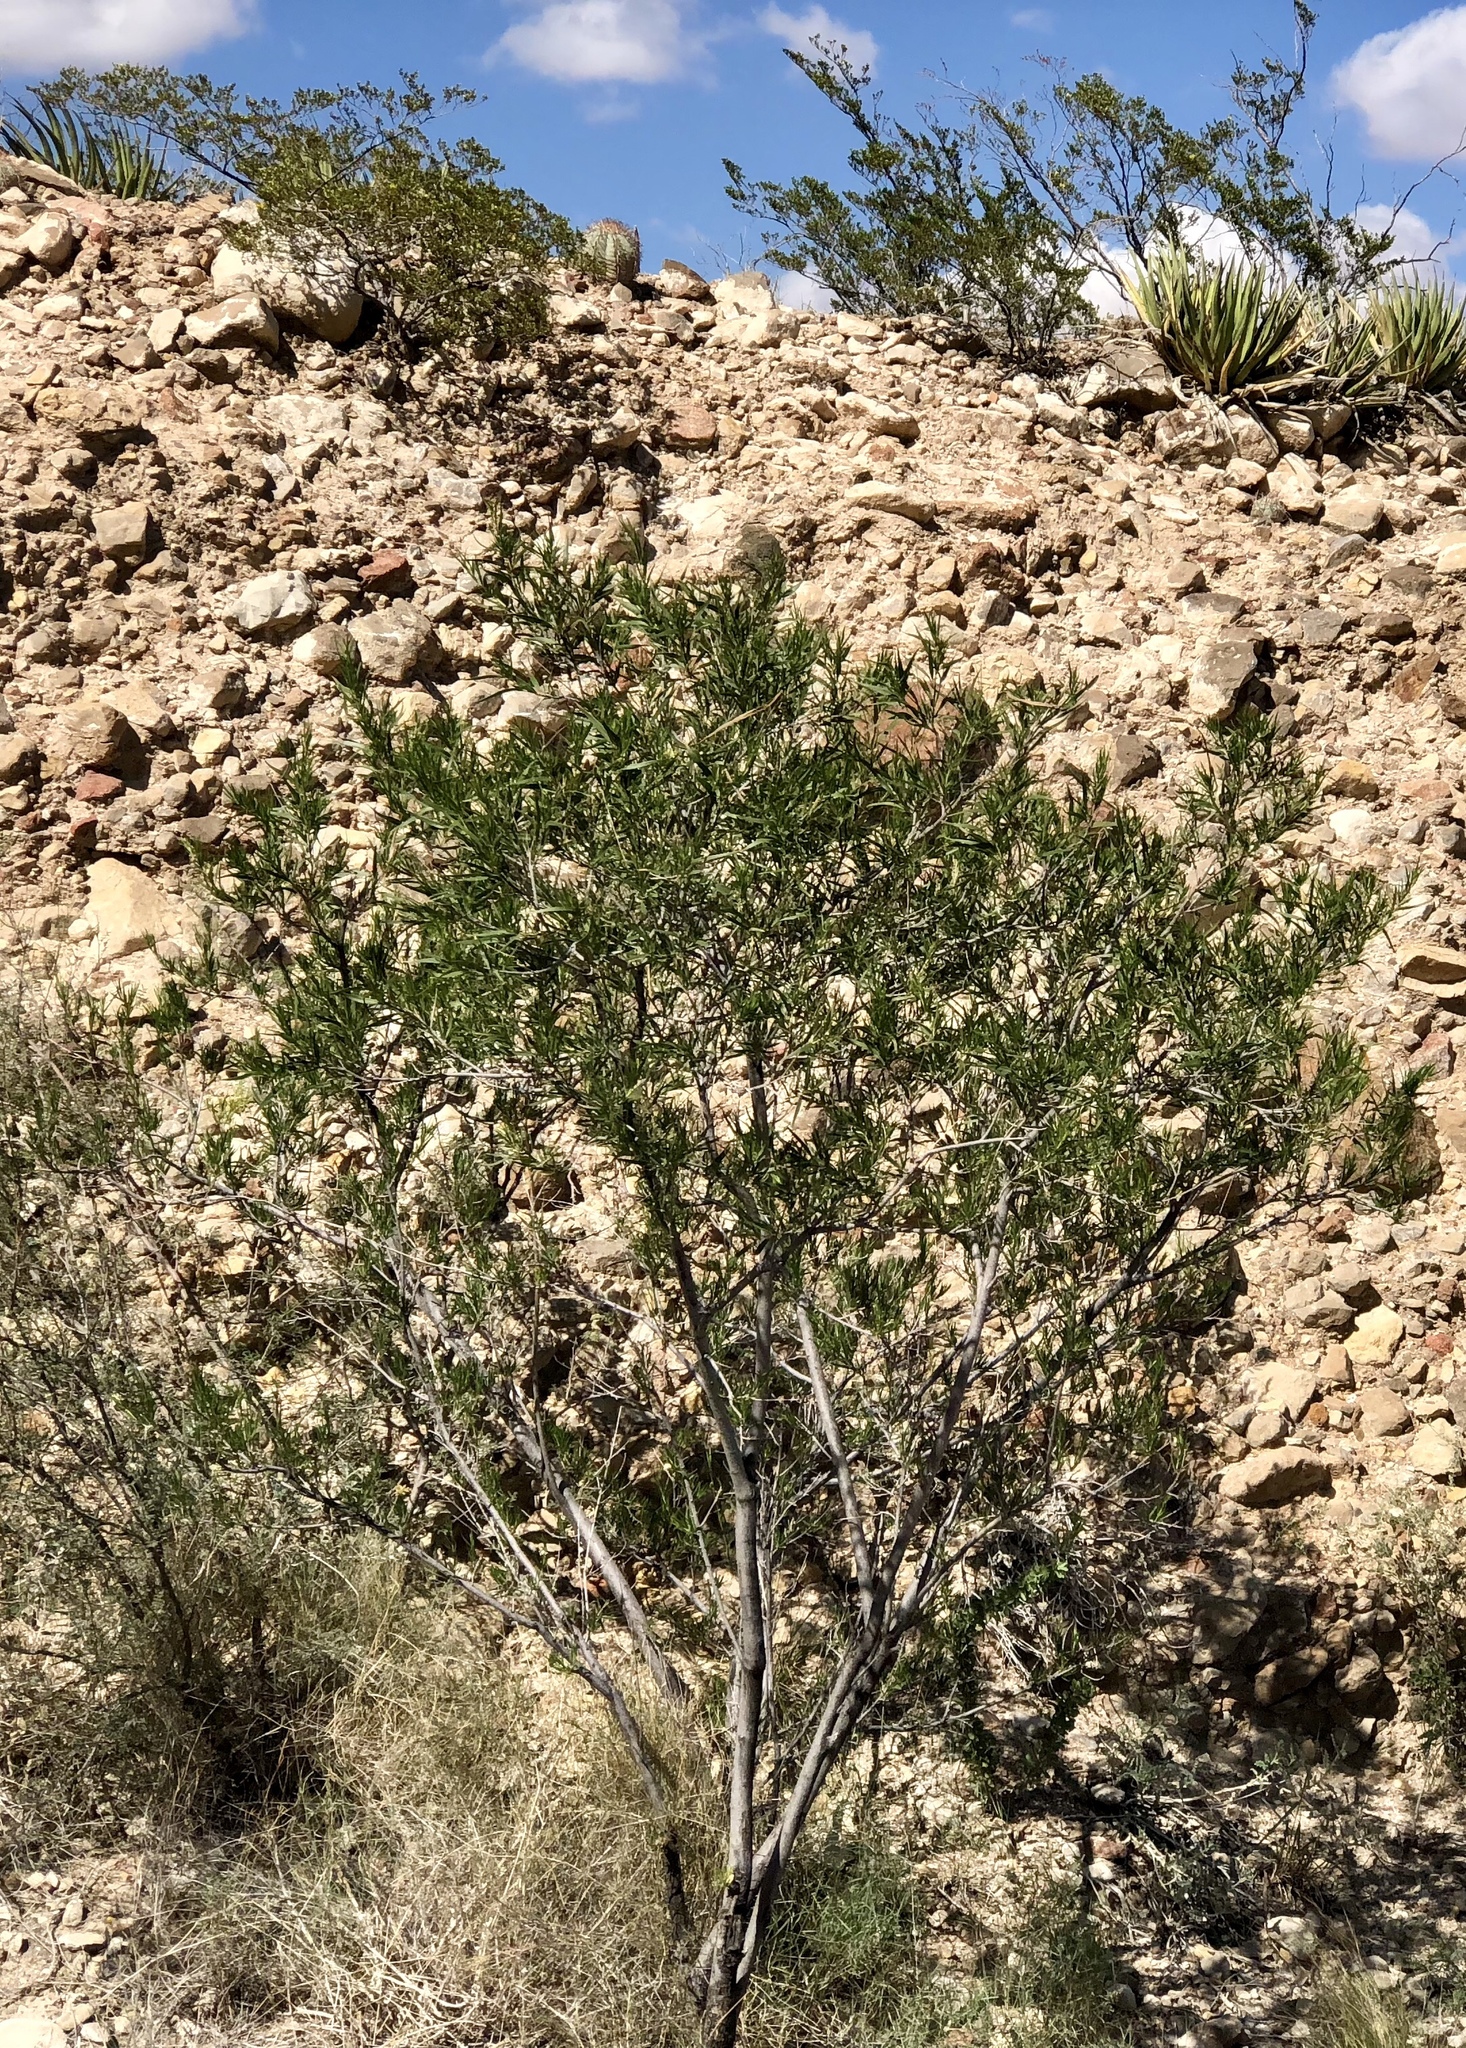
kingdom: Plantae
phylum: Tracheophyta
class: Magnoliopsida
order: Zygophyllales
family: Zygophyllaceae
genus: Larrea
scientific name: Larrea tridentata
